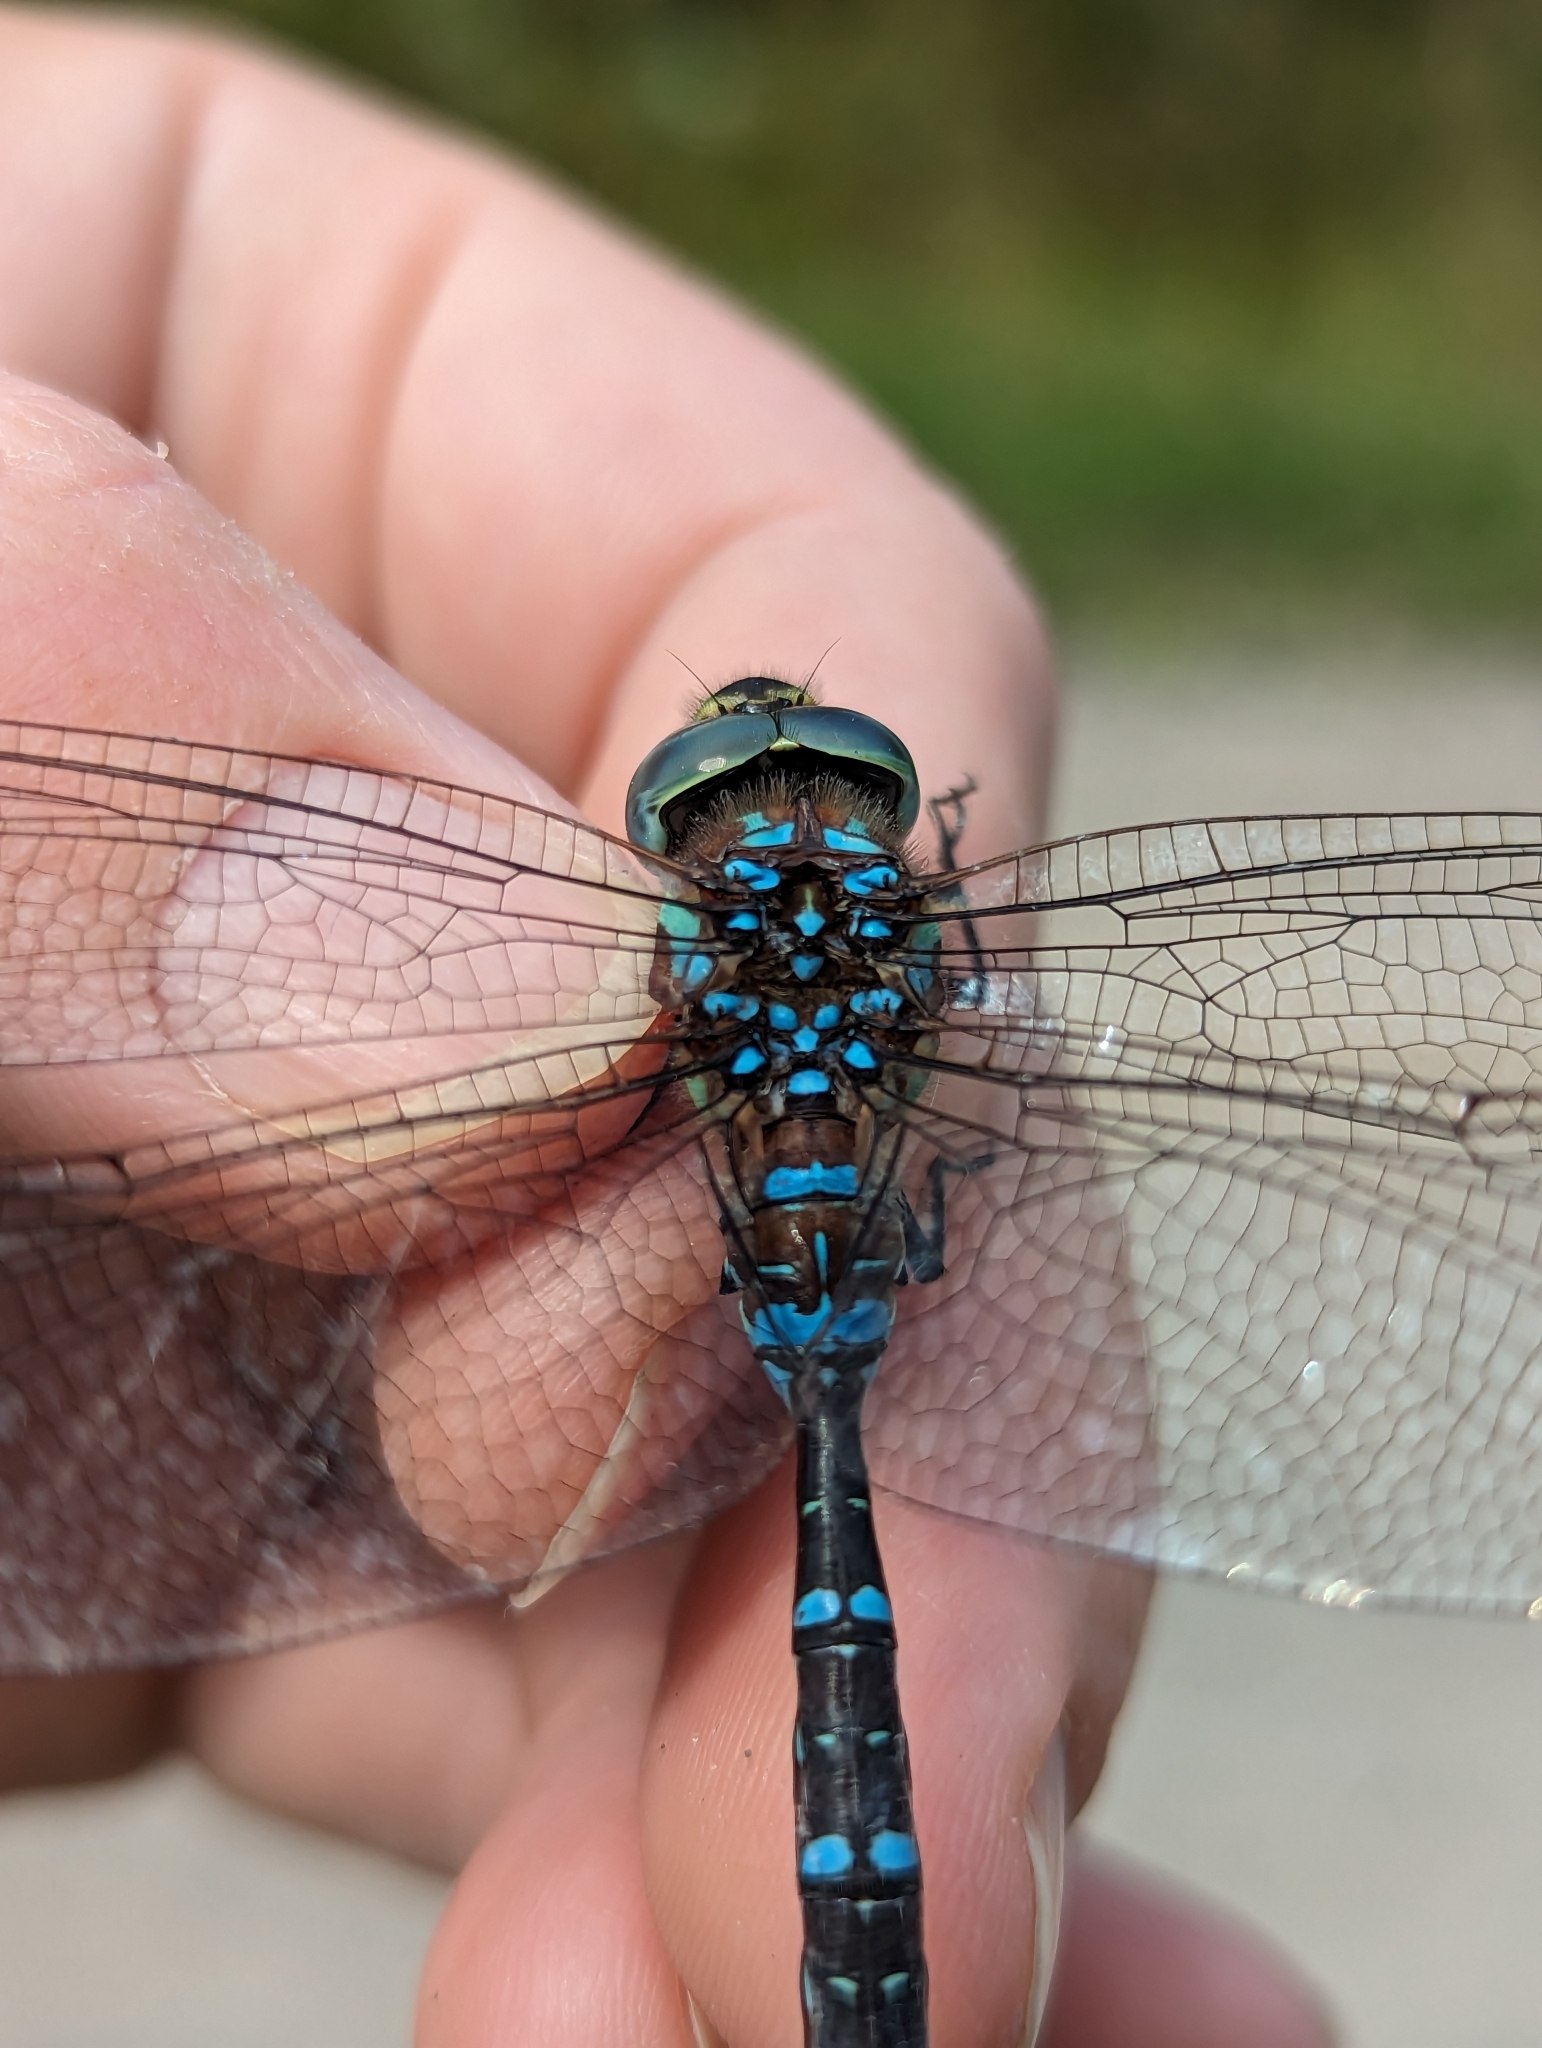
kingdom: Animalia
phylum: Arthropoda
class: Insecta
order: Odonata
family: Aeshnidae
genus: Aeshna
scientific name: Aeshna tuberculifera
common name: Aeschne à tubercules
